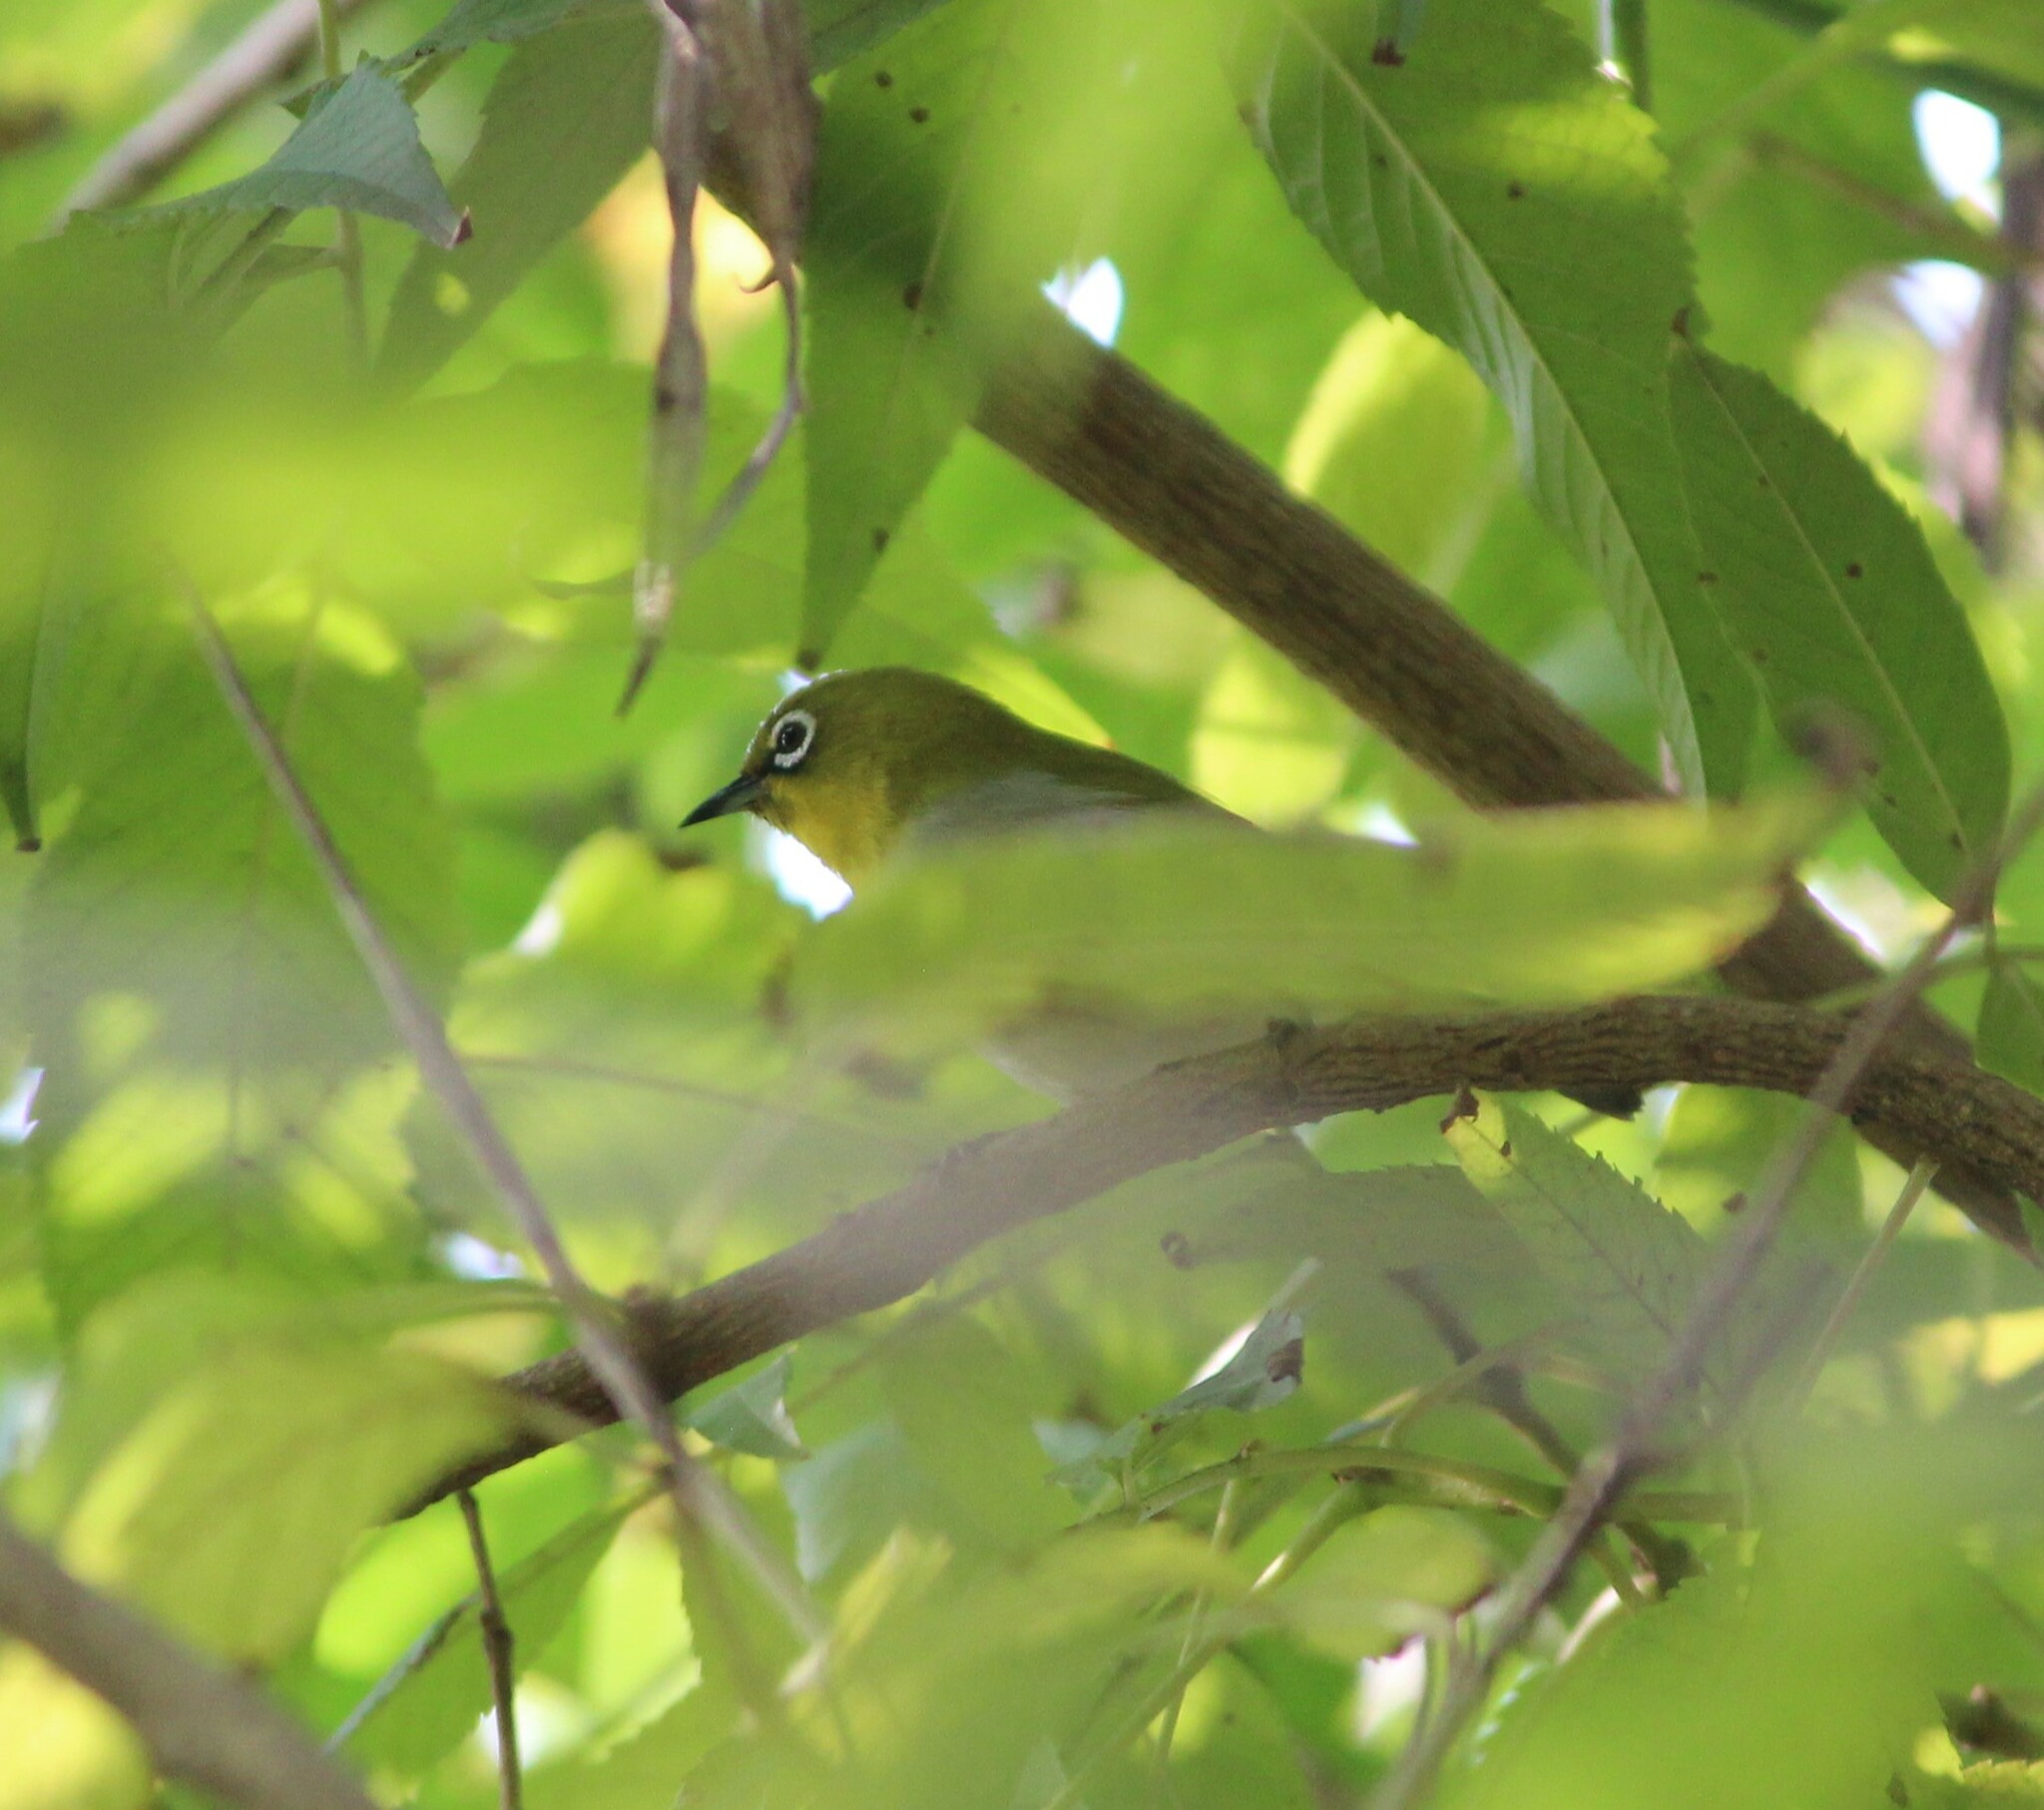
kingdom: Animalia
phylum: Chordata
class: Aves
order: Passeriformes
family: Zosteropidae
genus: Zosterops
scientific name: Zosterops palpebrosus
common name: Oriental white-eye
